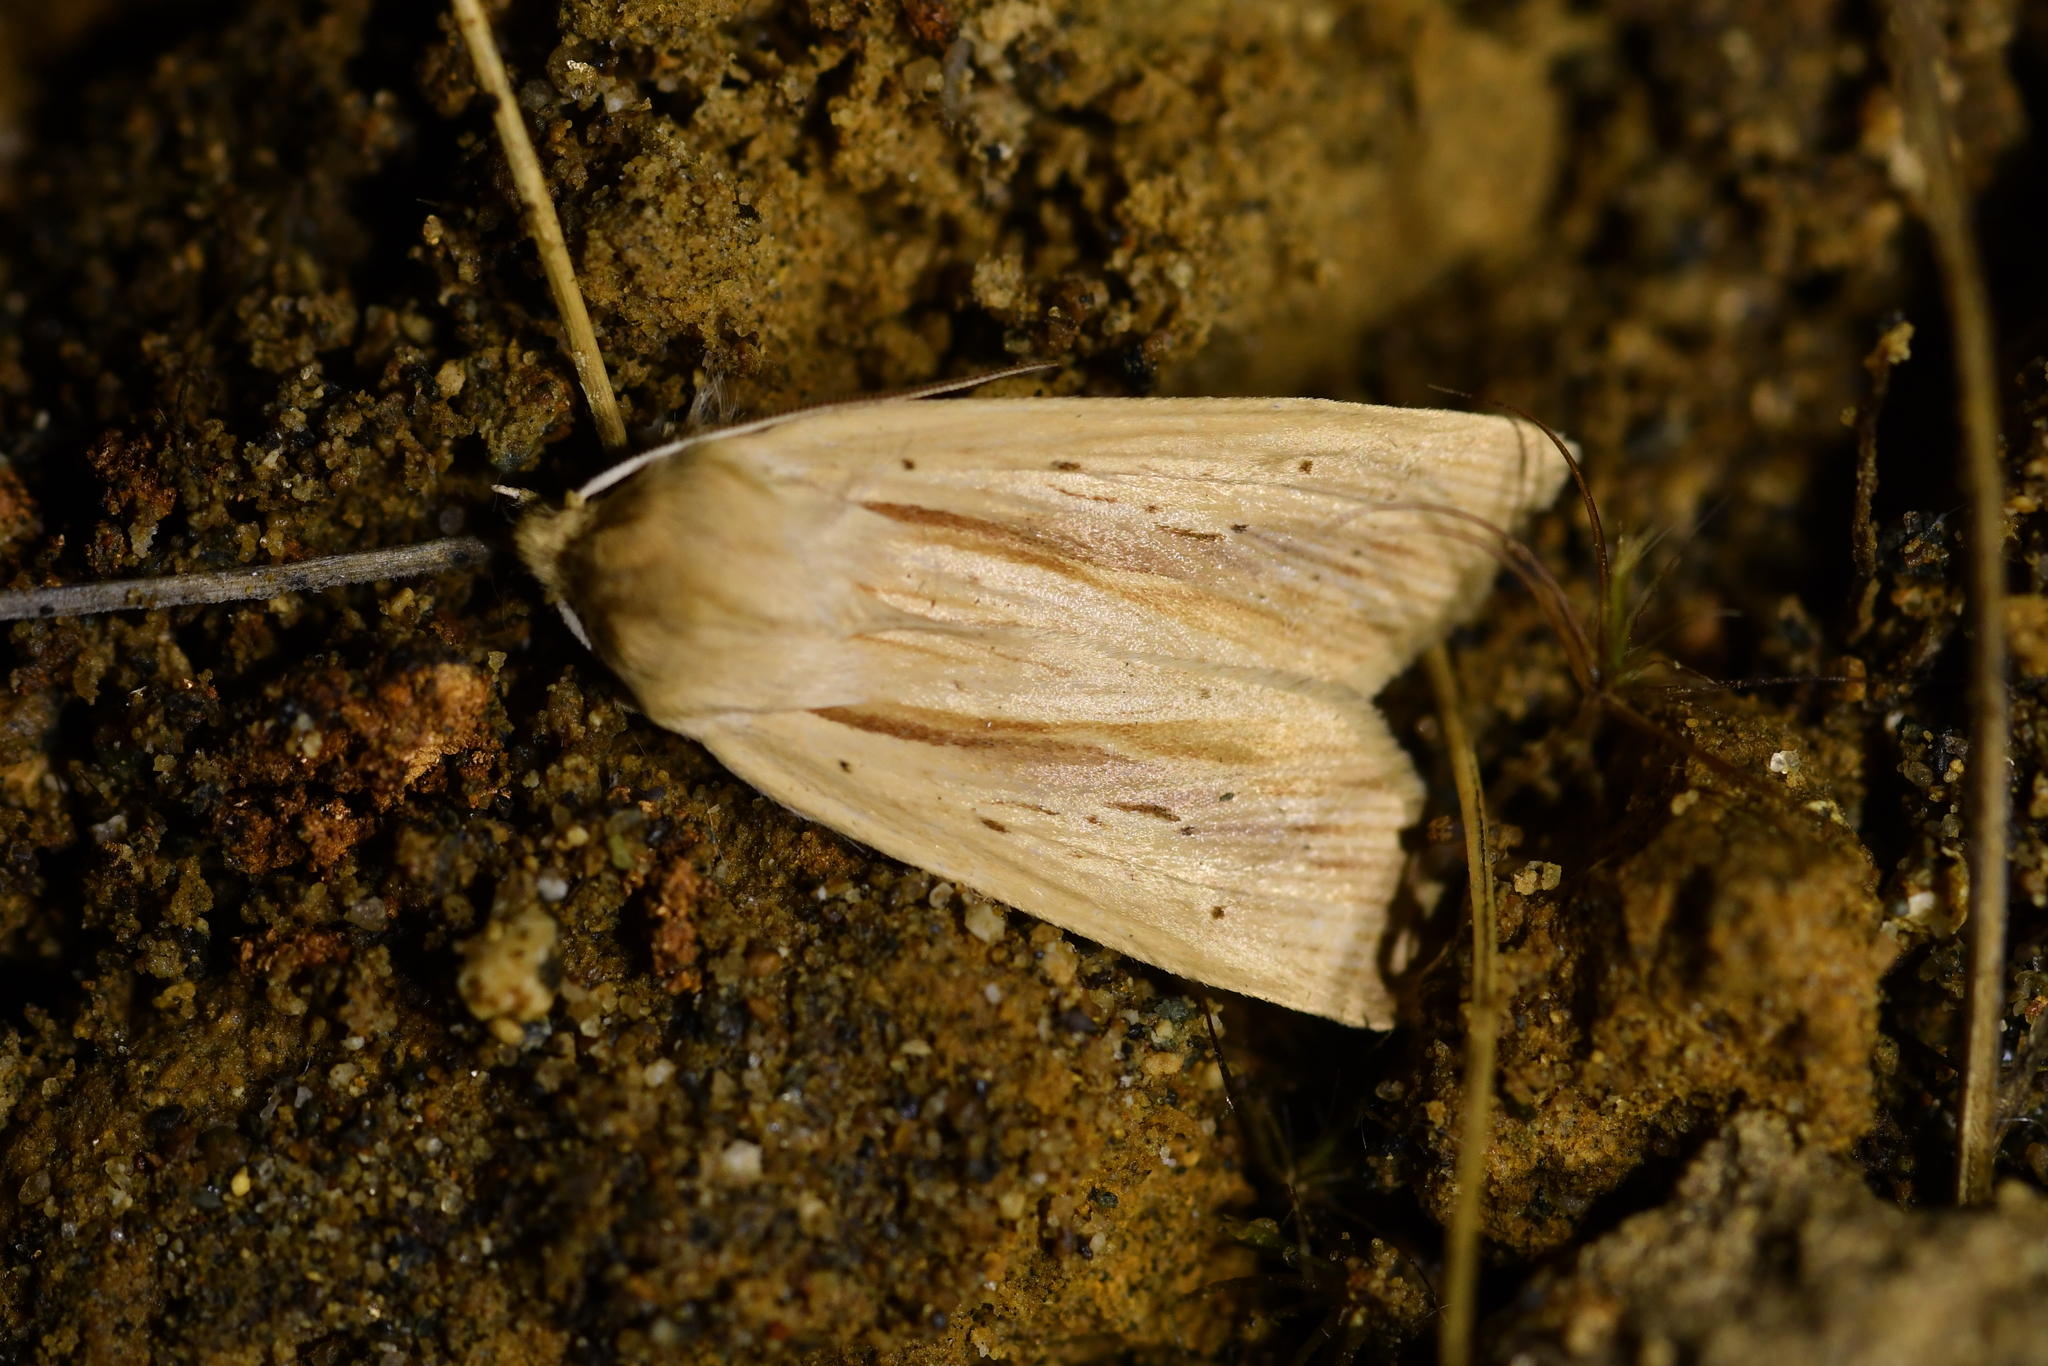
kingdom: Animalia
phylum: Arthropoda
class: Insecta
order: Lepidoptera
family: Noctuidae
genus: Ichneutica
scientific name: Ichneutica semivittata
